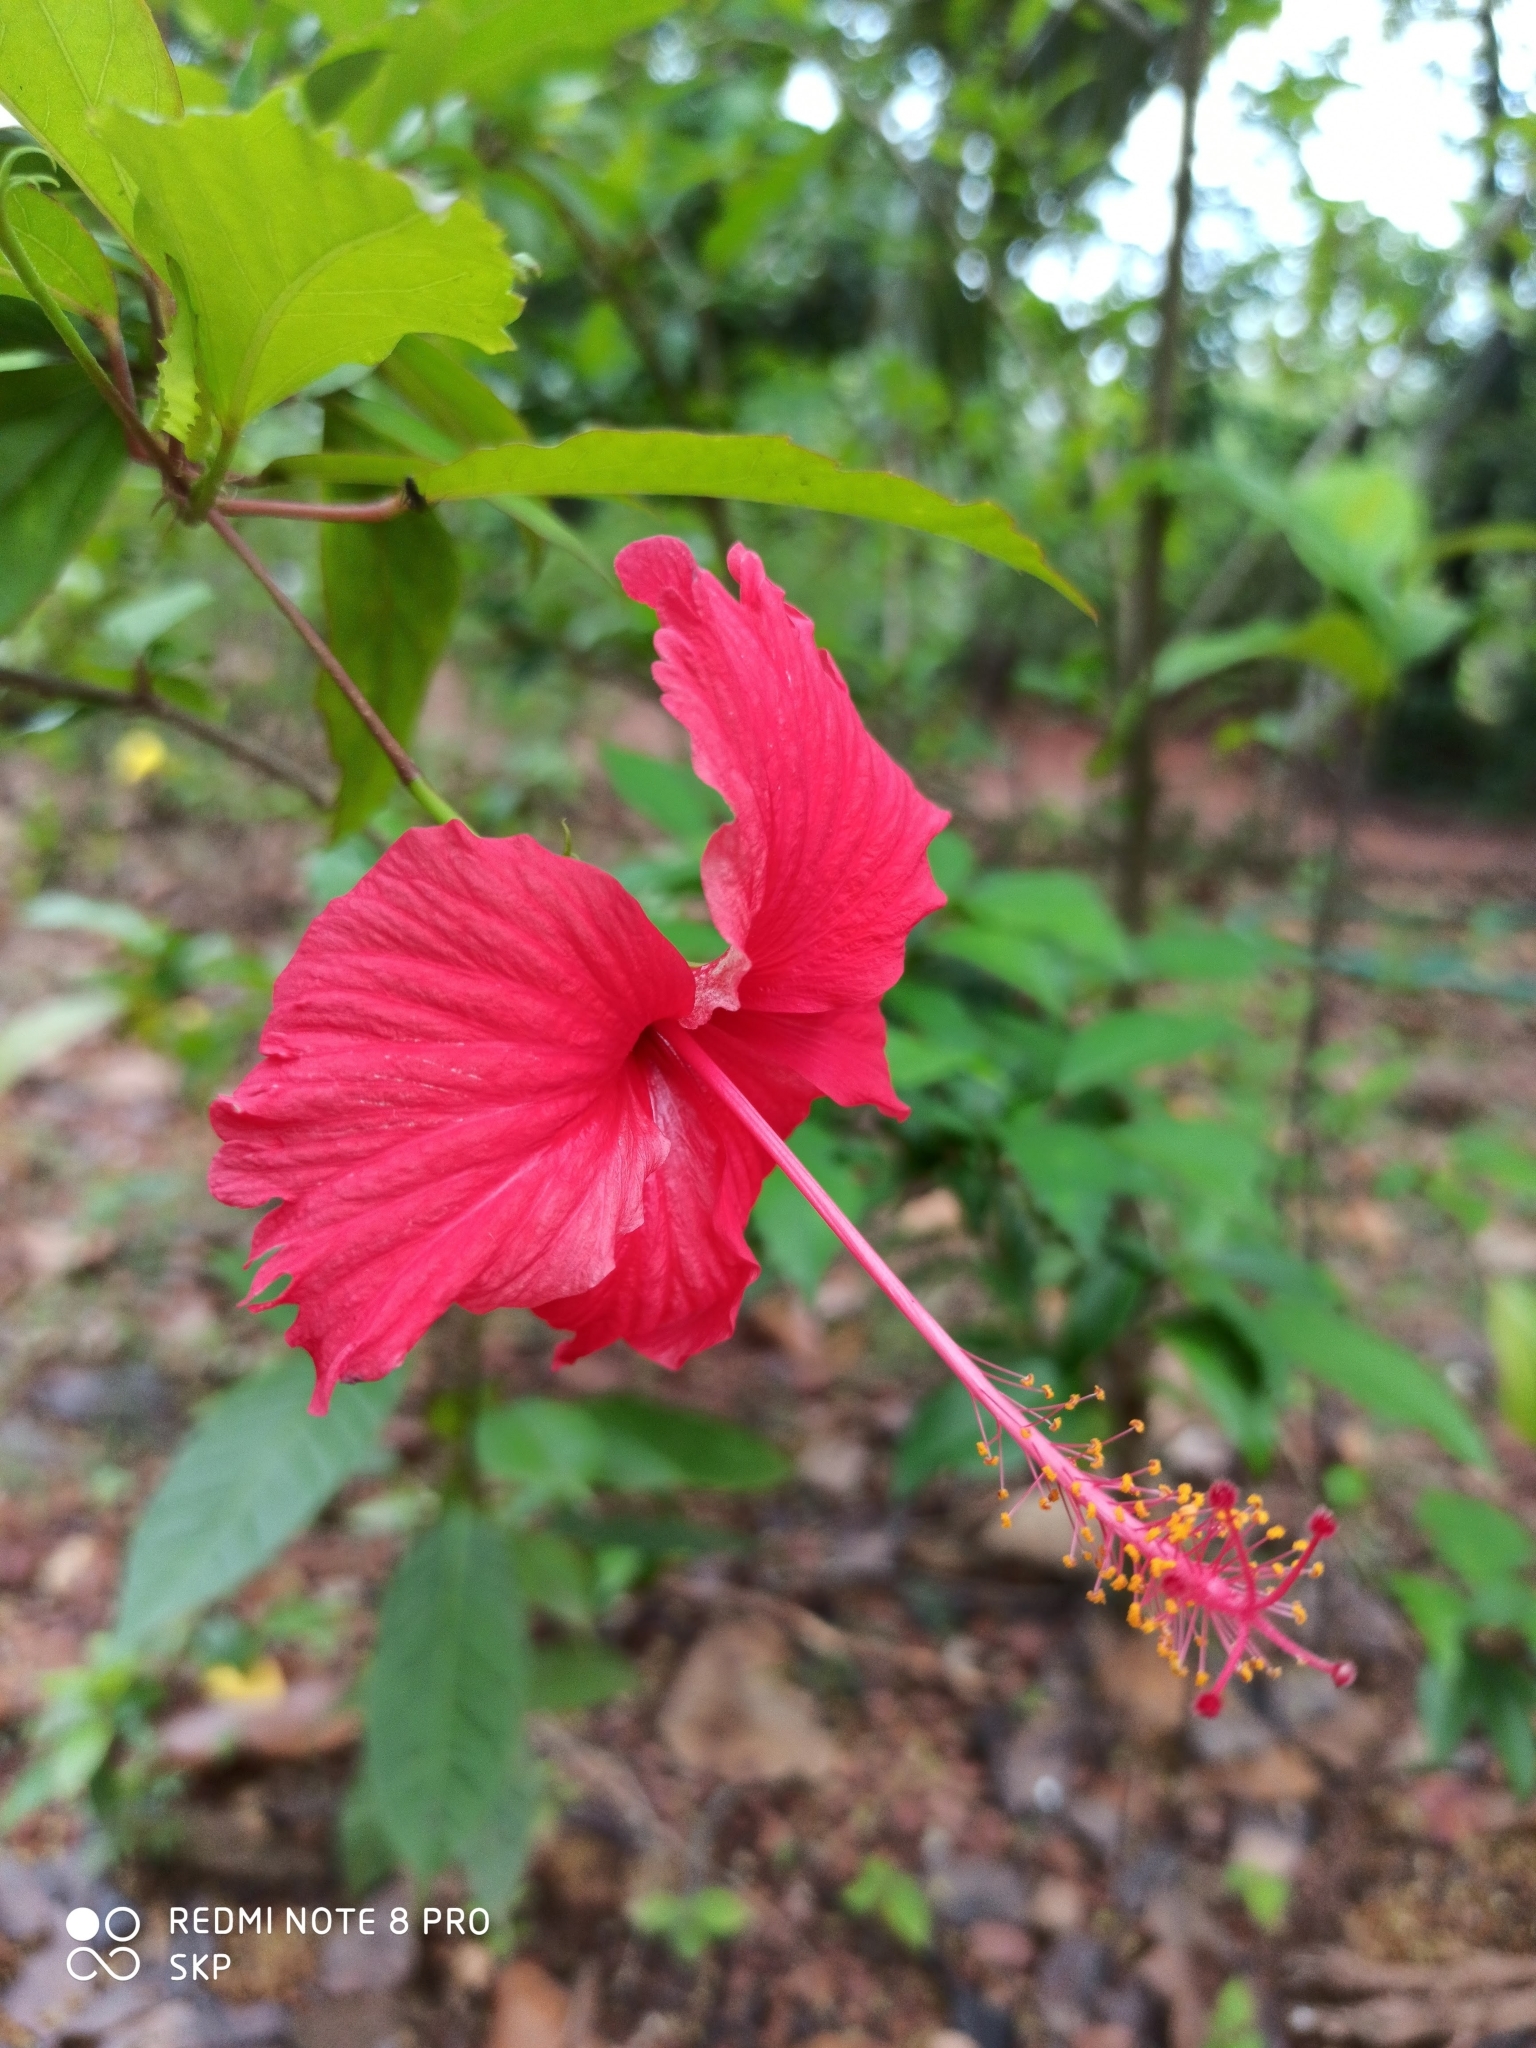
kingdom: Plantae
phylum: Tracheophyta
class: Magnoliopsida
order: Malvales
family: Malvaceae
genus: Hibiscus
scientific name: Hibiscus archeri
